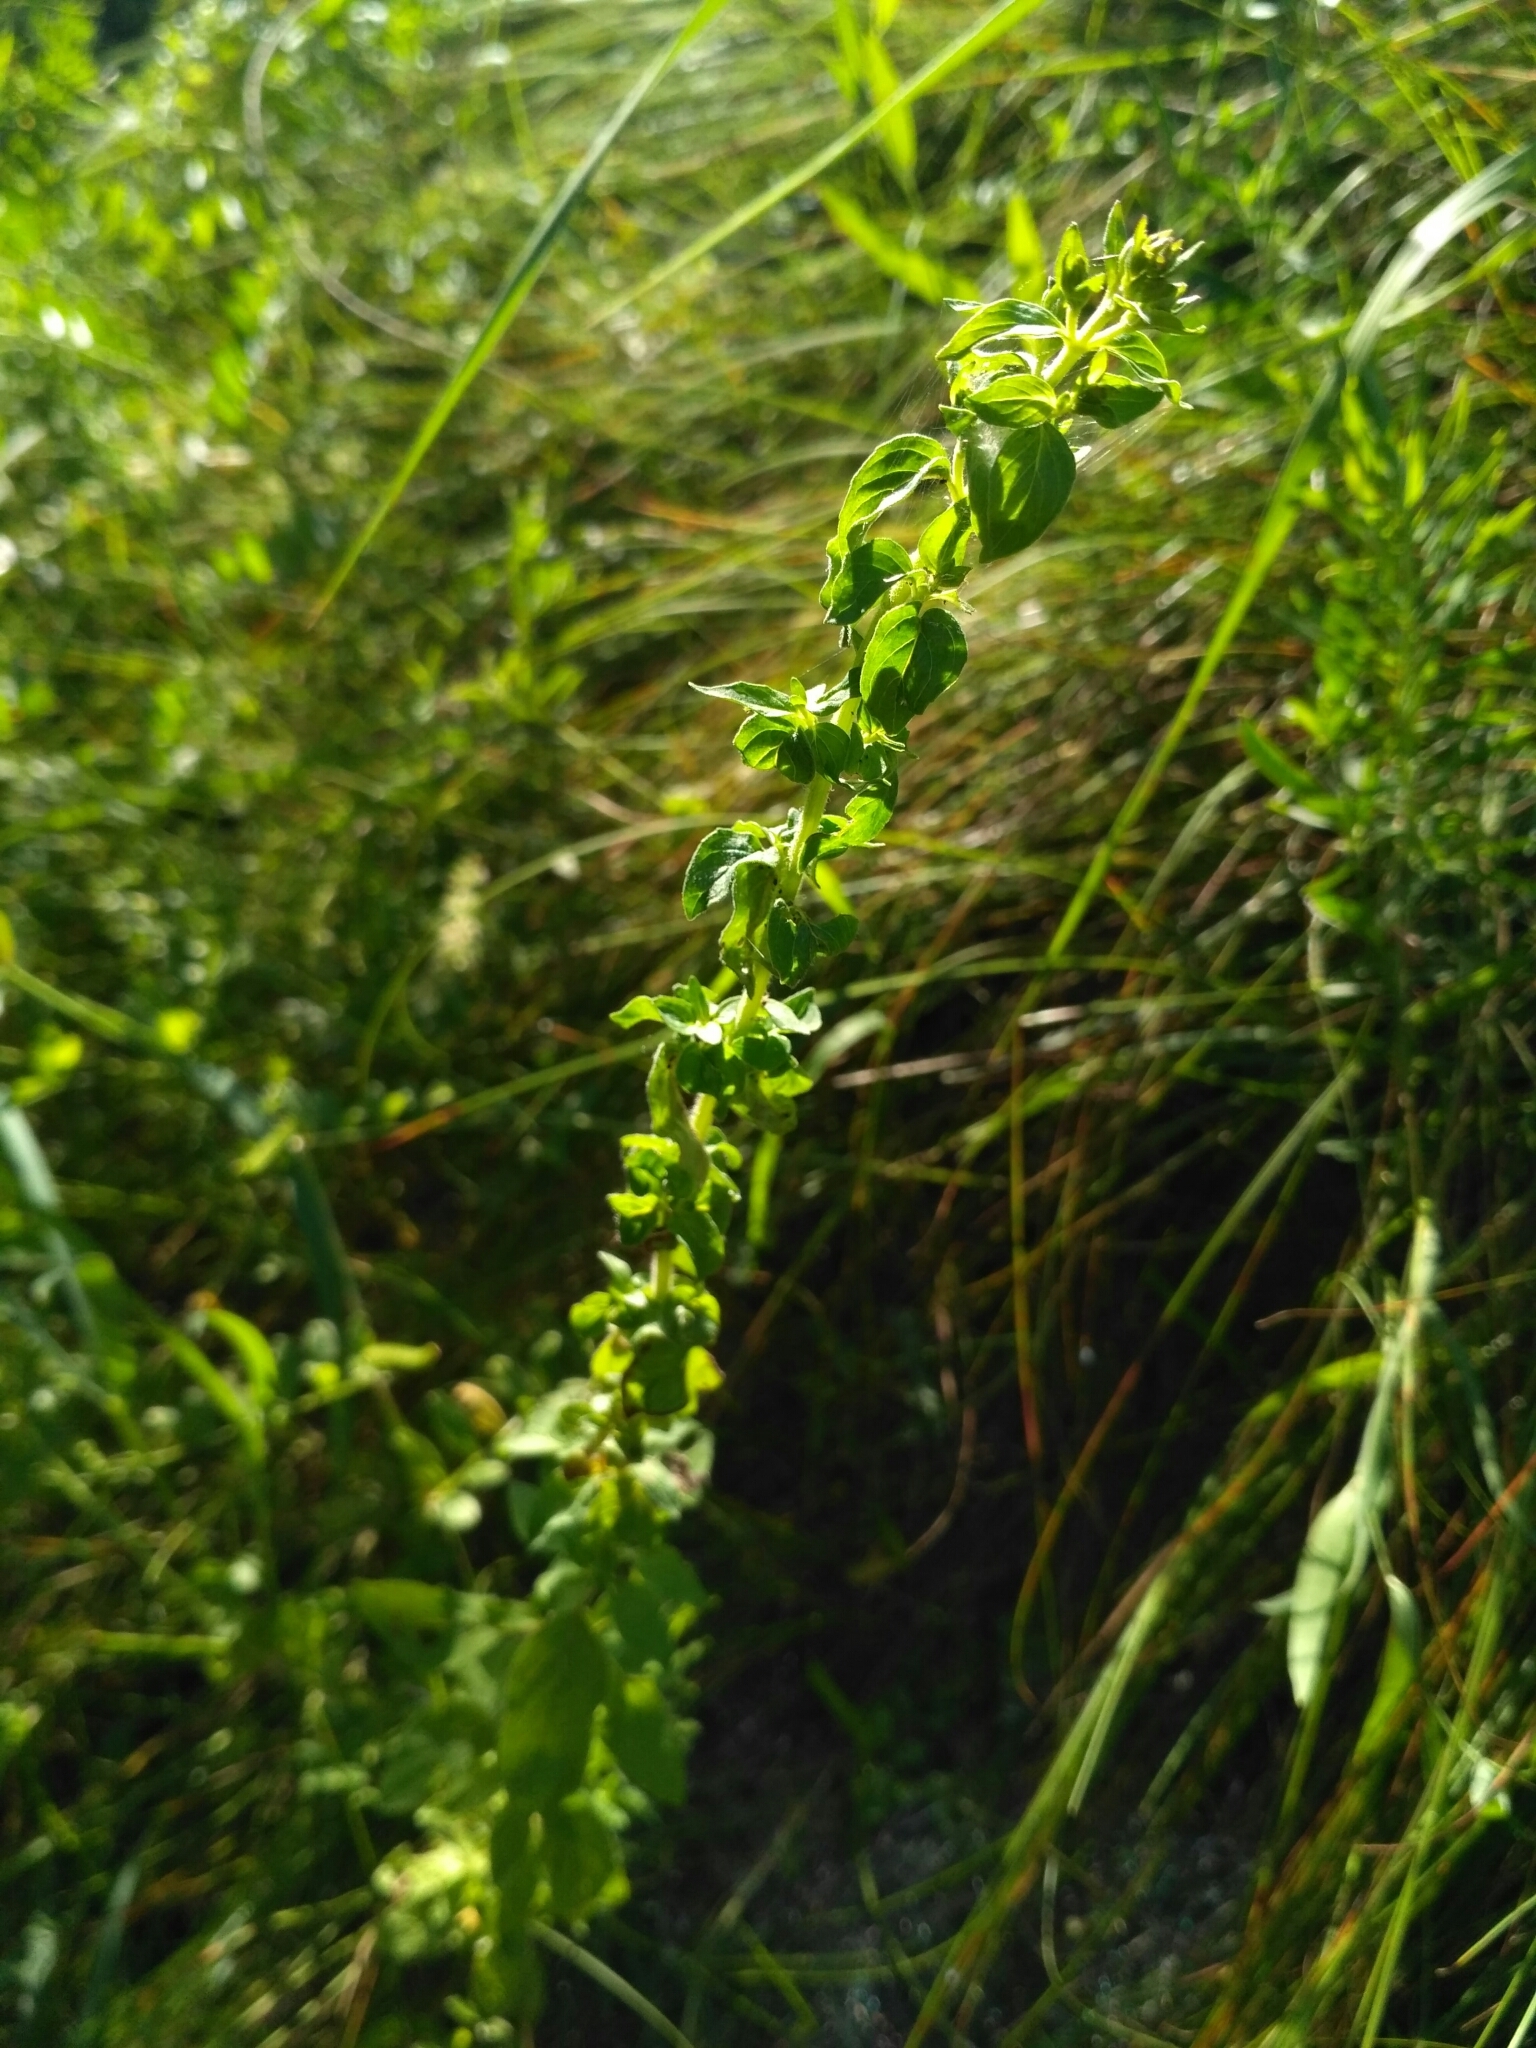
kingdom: Plantae
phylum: Tracheophyta
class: Magnoliopsida
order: Lamiales
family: Lamiaceae
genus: Origanum
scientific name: Origanum vulgare
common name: Wild marjoram
